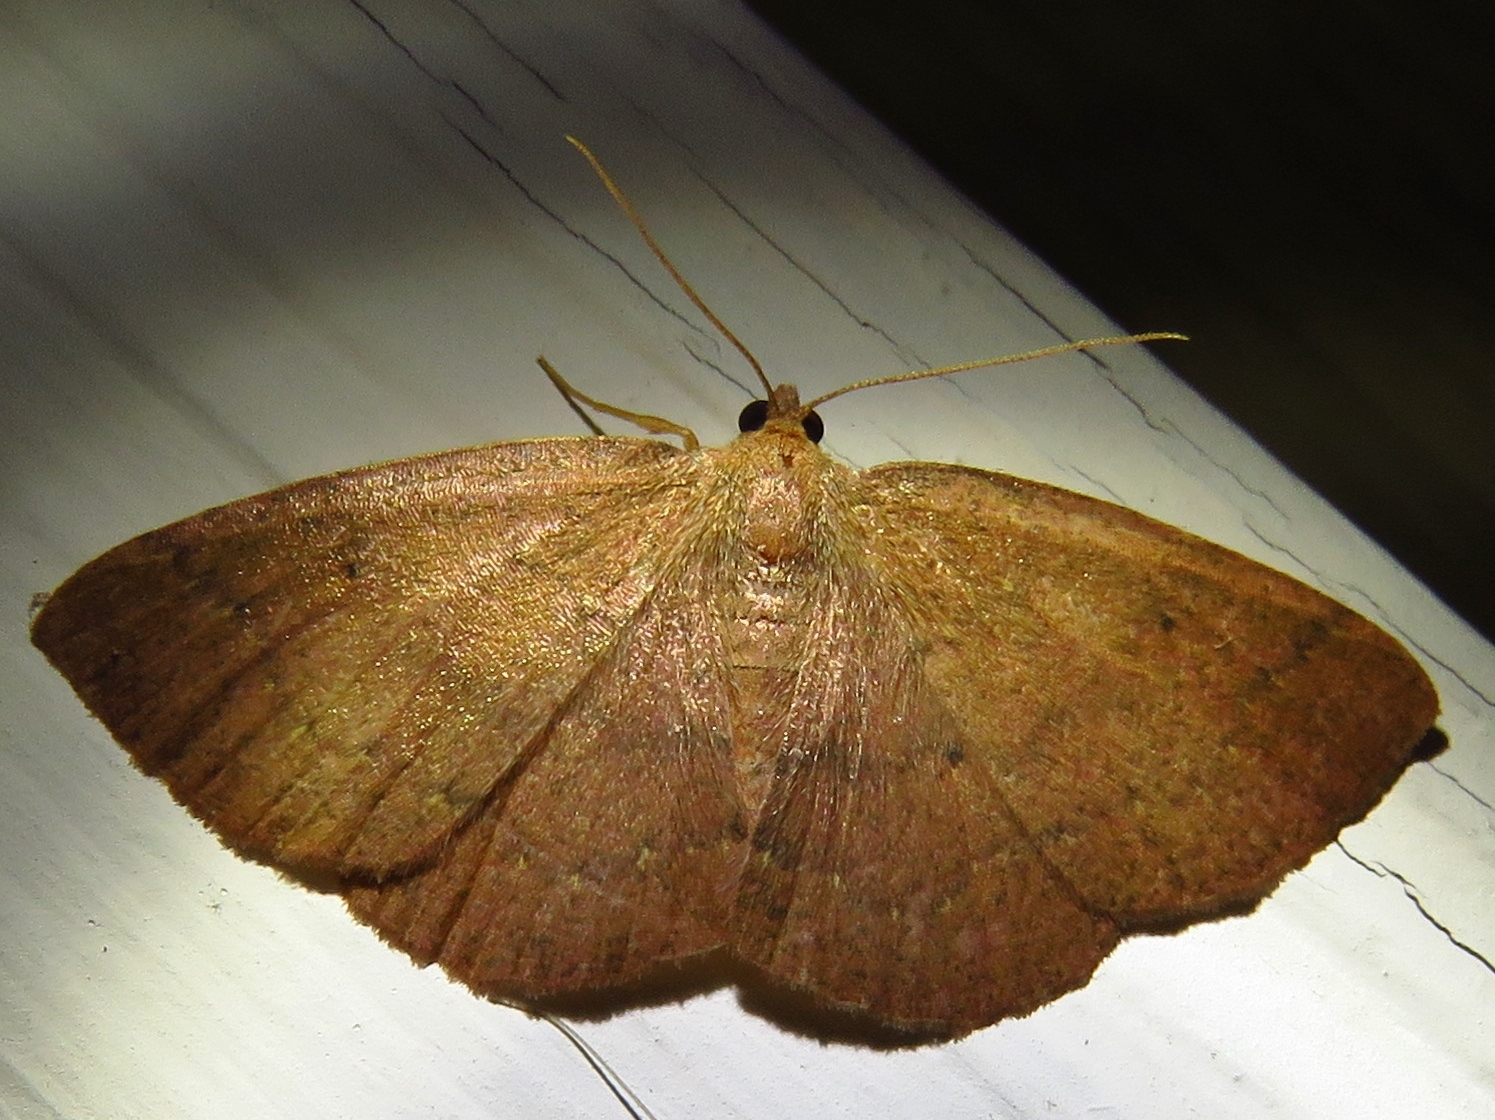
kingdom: Animalia
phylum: Arthropoda
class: Insecta
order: Lepidoptera
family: Geometridae
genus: Ilexia
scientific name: Ilexia intractata
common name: Black-dotted ruddy moth
